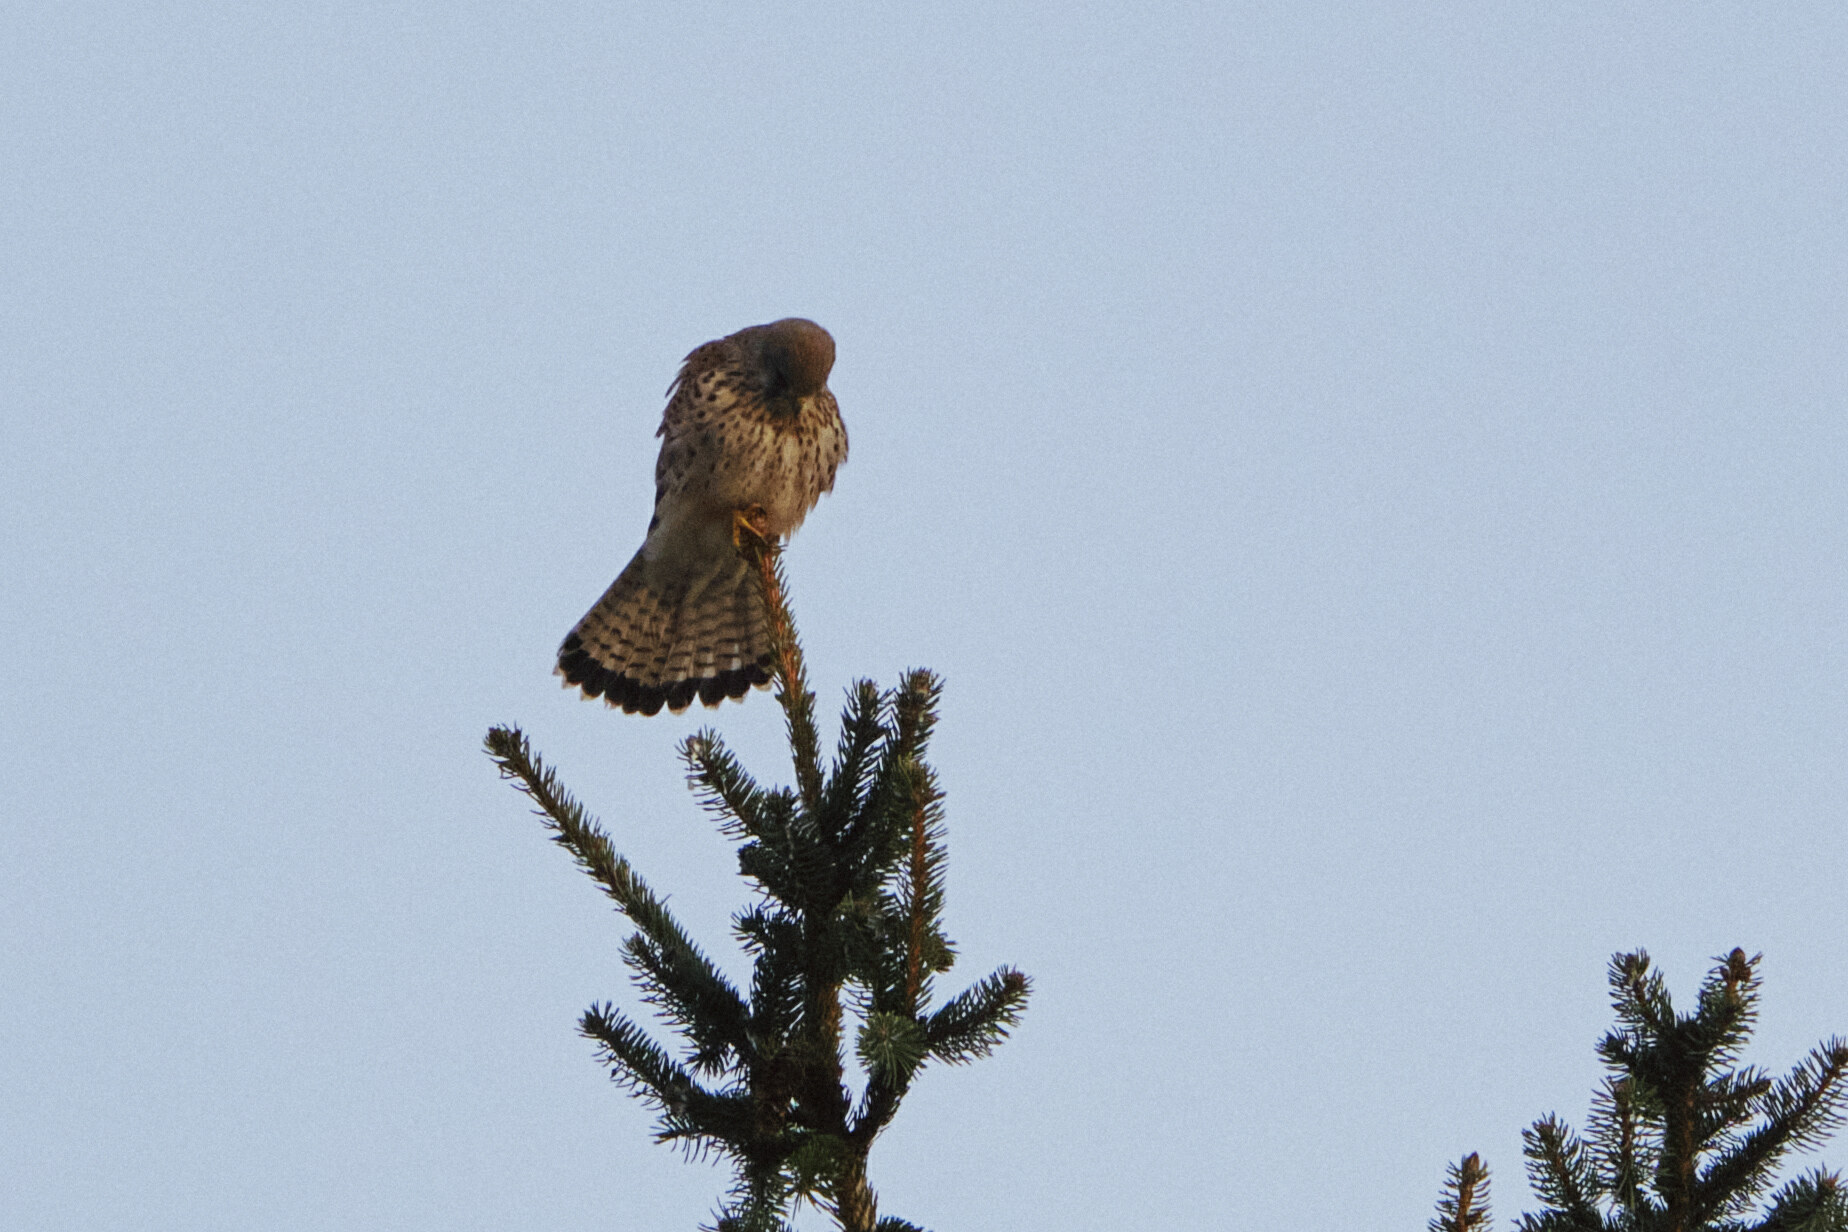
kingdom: Animalia
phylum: Chordata
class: Aves
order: Falconiformes
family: Falconidae
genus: Falco
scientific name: Falco tinnunculus
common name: Common kestrel
